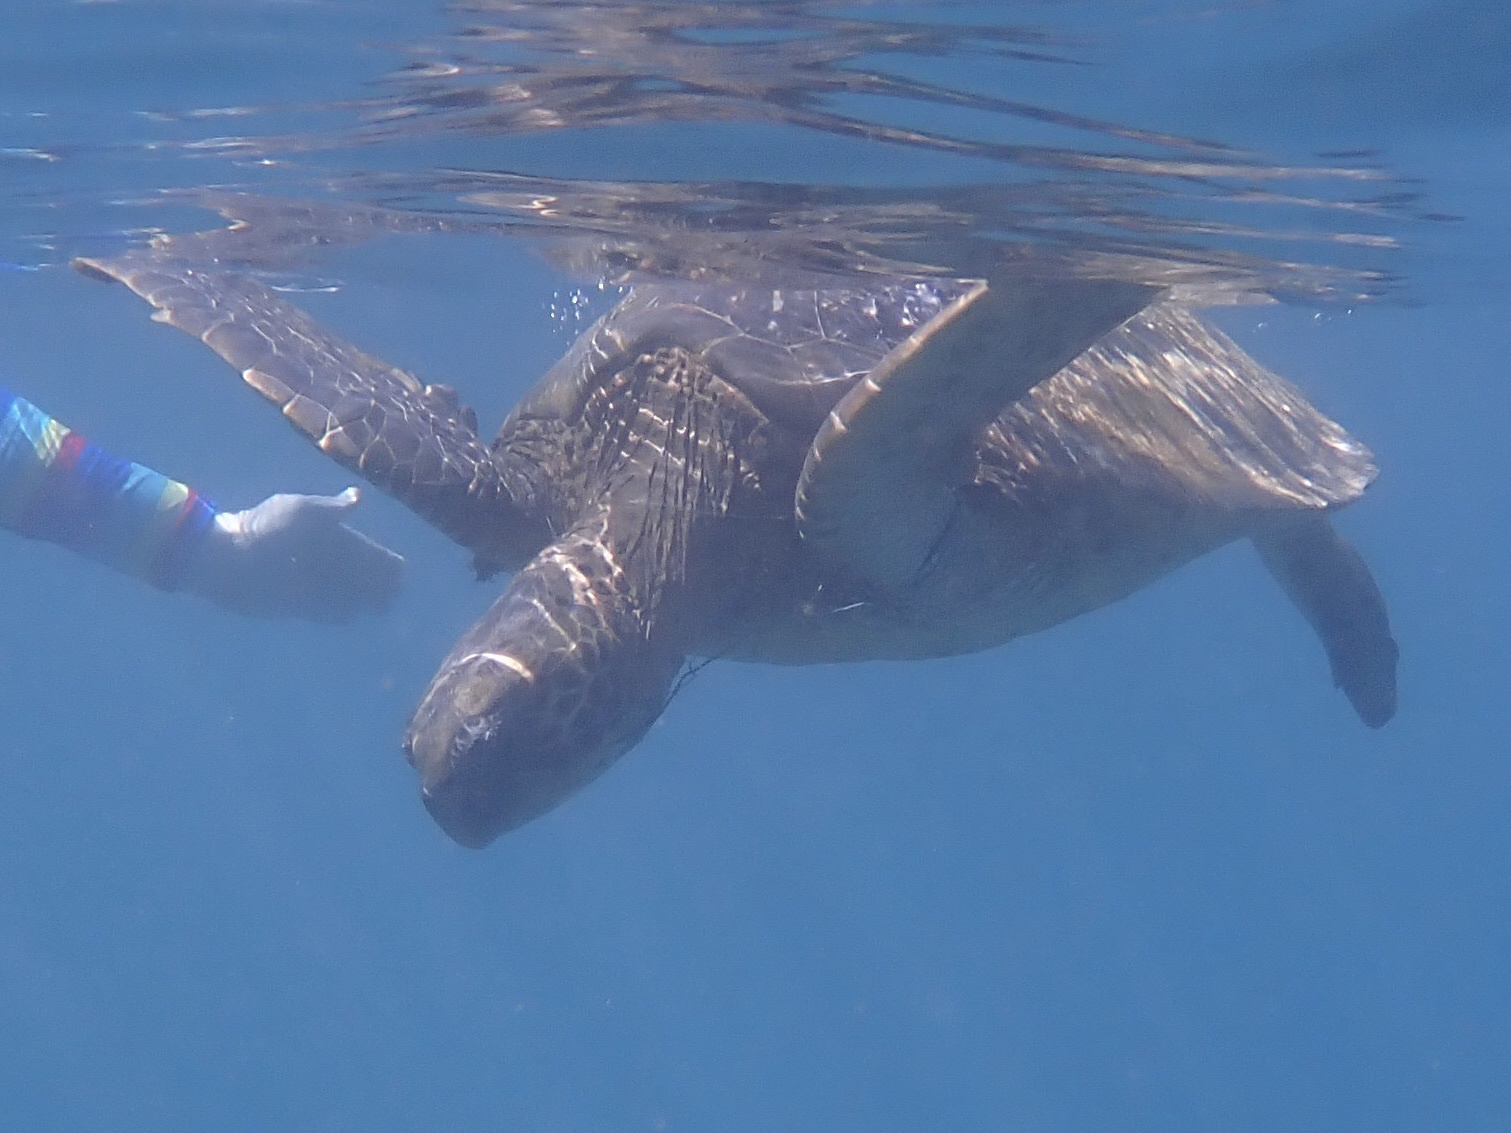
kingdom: Animalia
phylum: Chordata
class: Testudines
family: Cheloniidae
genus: Chelonia
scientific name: Chelonia mydas
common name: Green turtle
